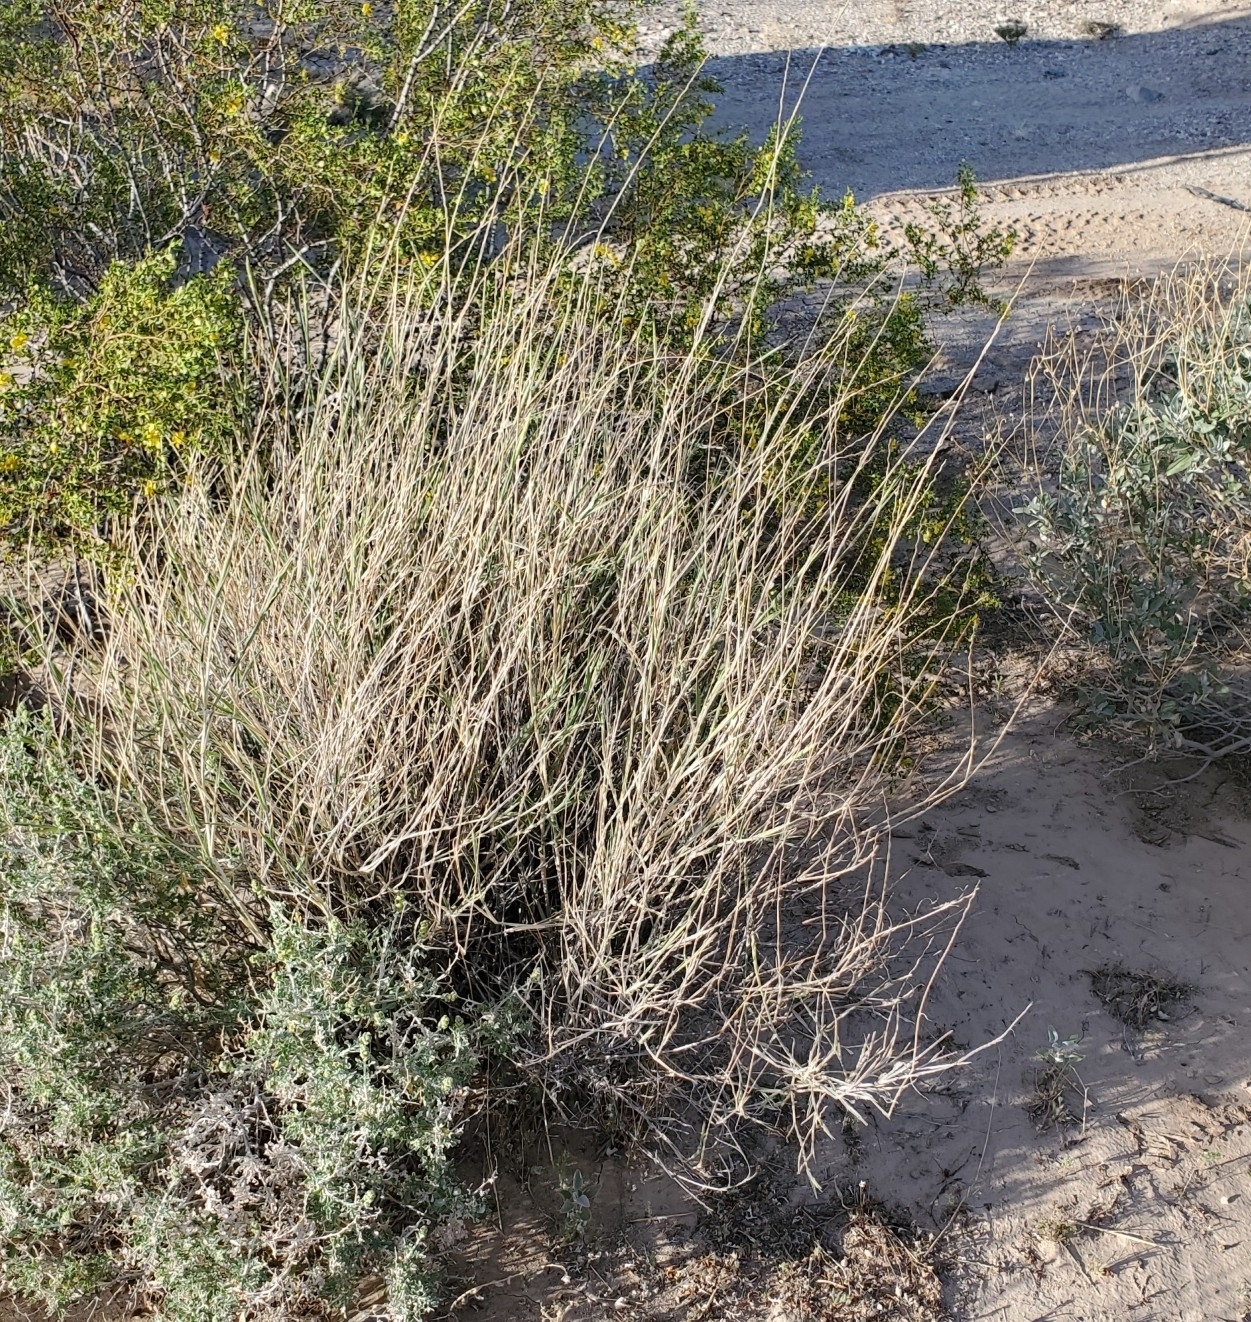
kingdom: Plantae
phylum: Tracheophyta
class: Liliopsida
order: Poales
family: Poaceae
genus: Hilaria
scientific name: Hilaria rigida
